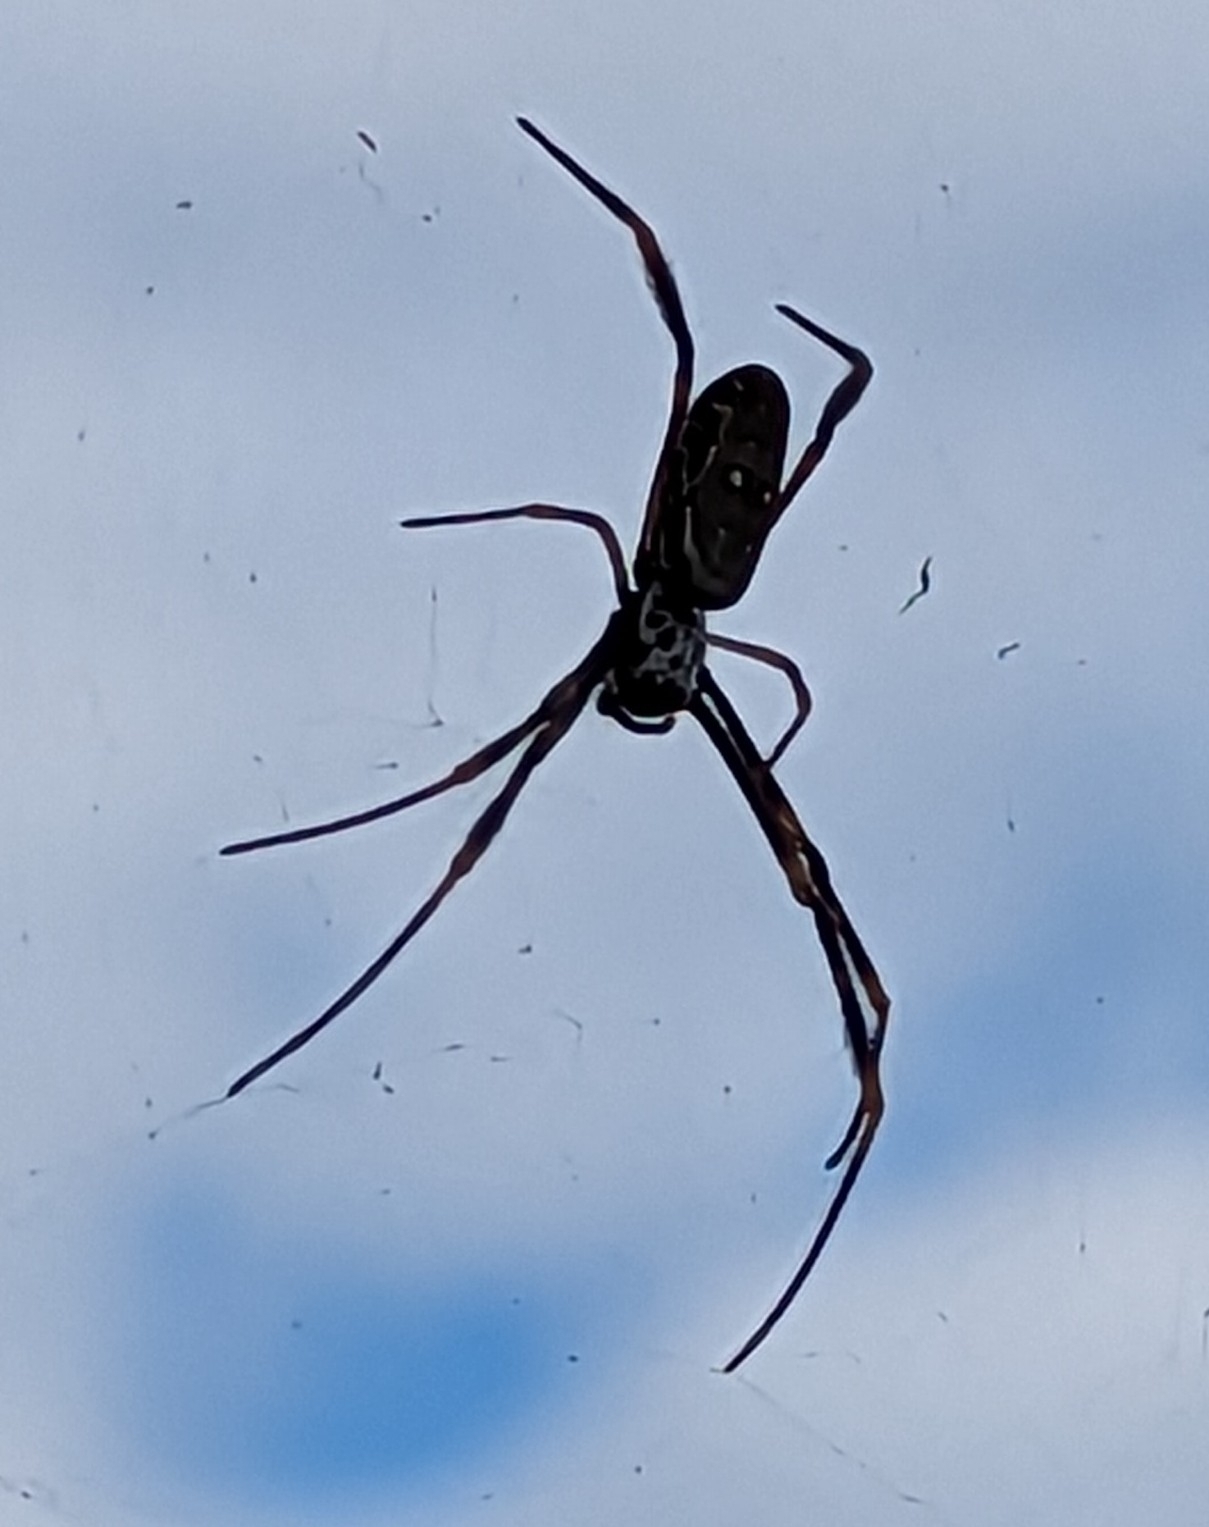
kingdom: Animalia
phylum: Arthropoda
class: Arachnida
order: Araneae
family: Araneidae
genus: Trichonephila
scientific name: Trichonephila plumipes
